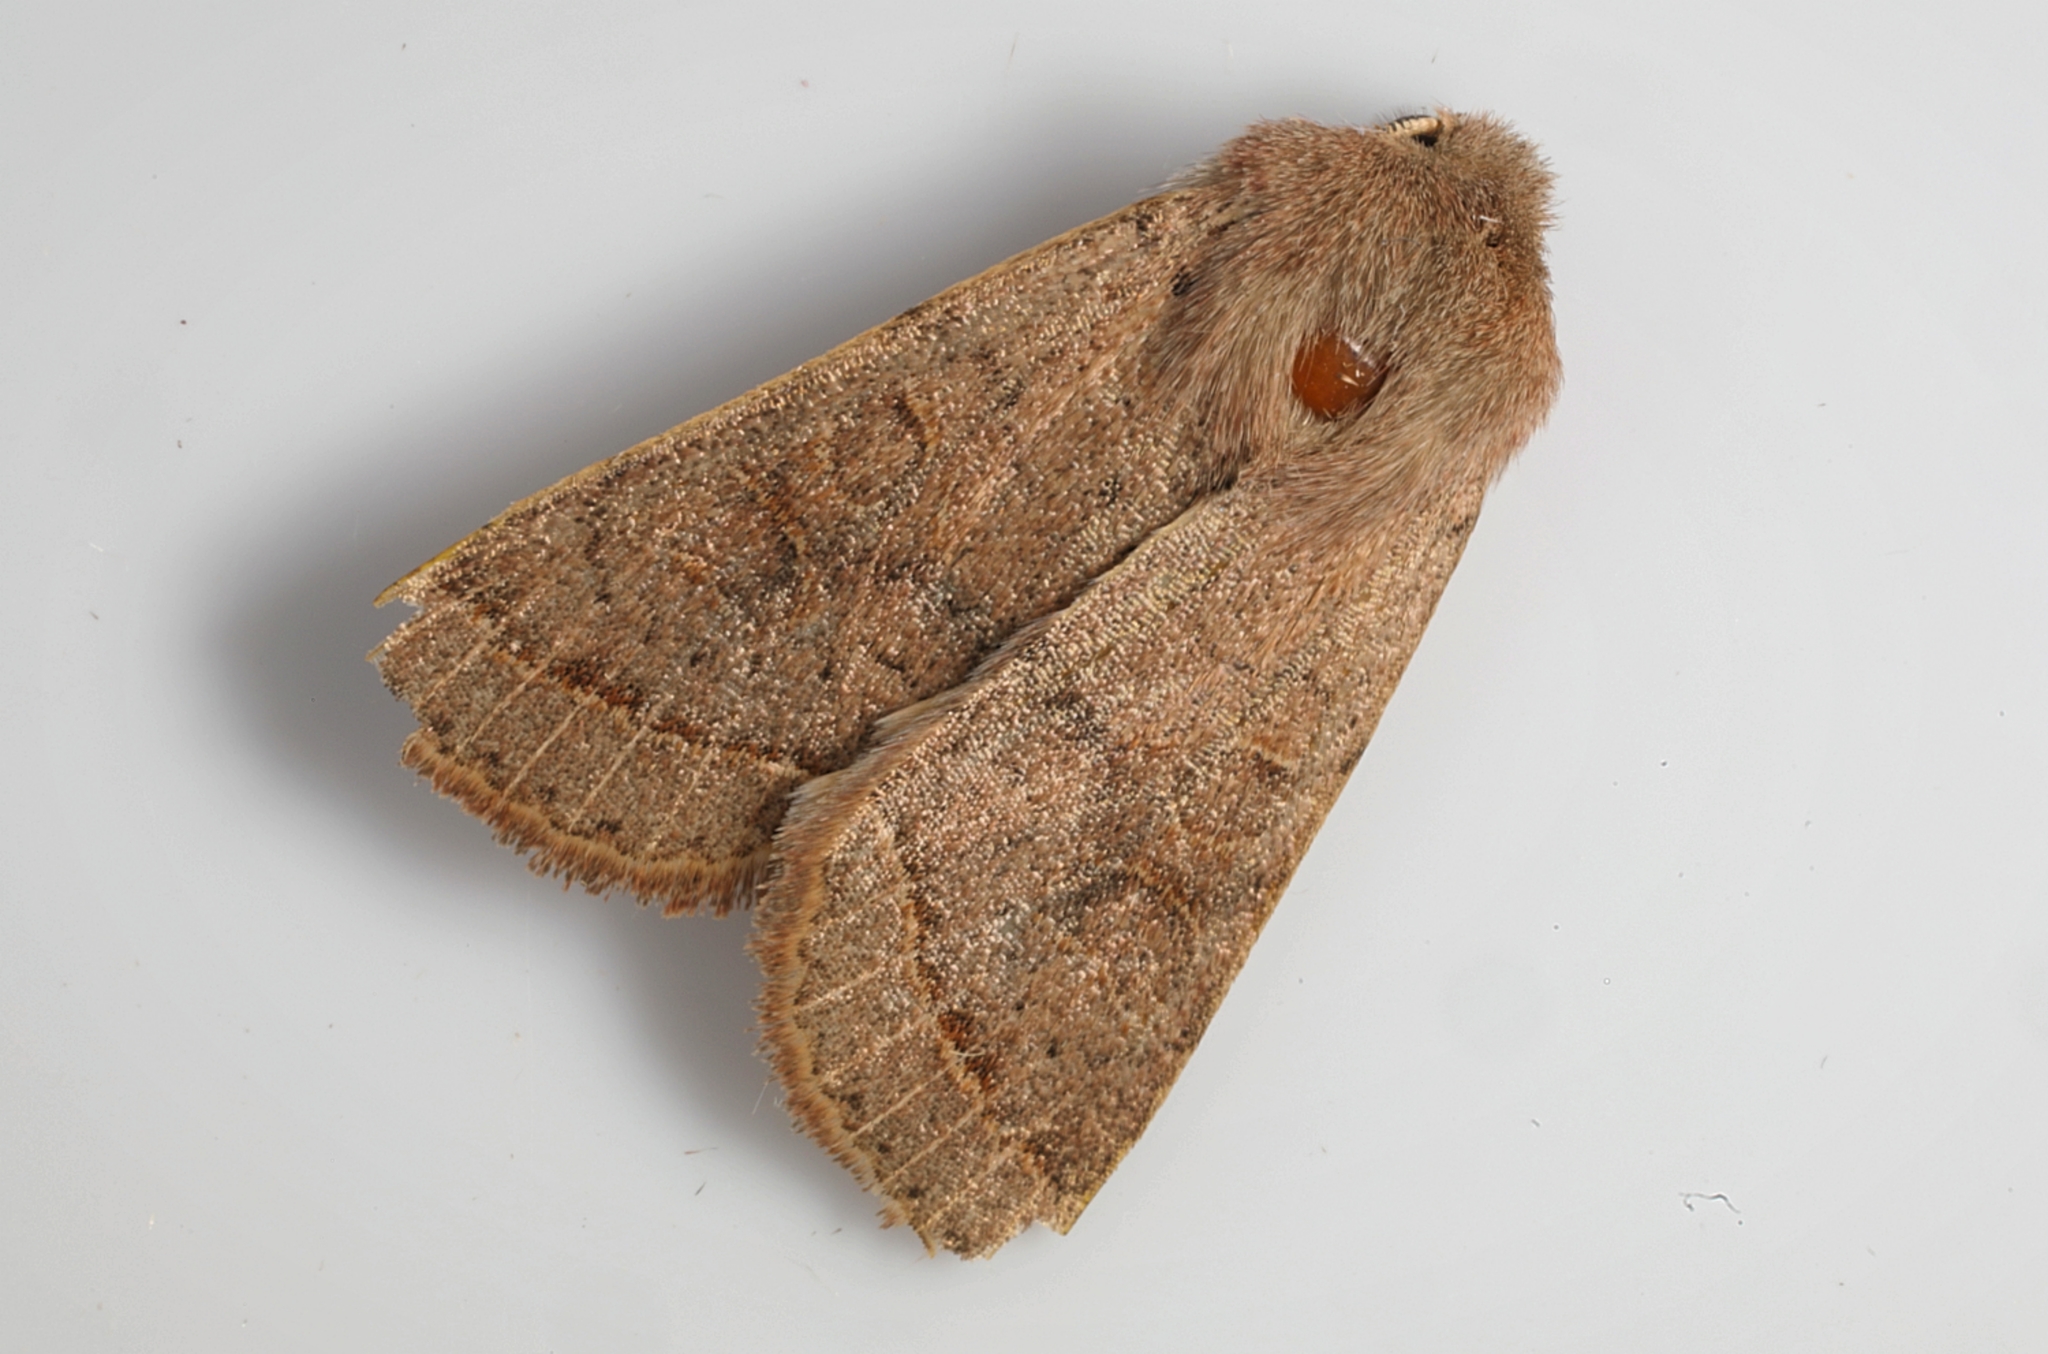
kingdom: Animalia
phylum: Arthropoda
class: Insecta
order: Lepidoptera
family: Noctuidae
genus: Orthosia
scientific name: Orthosia cerasi
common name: Common quaker
